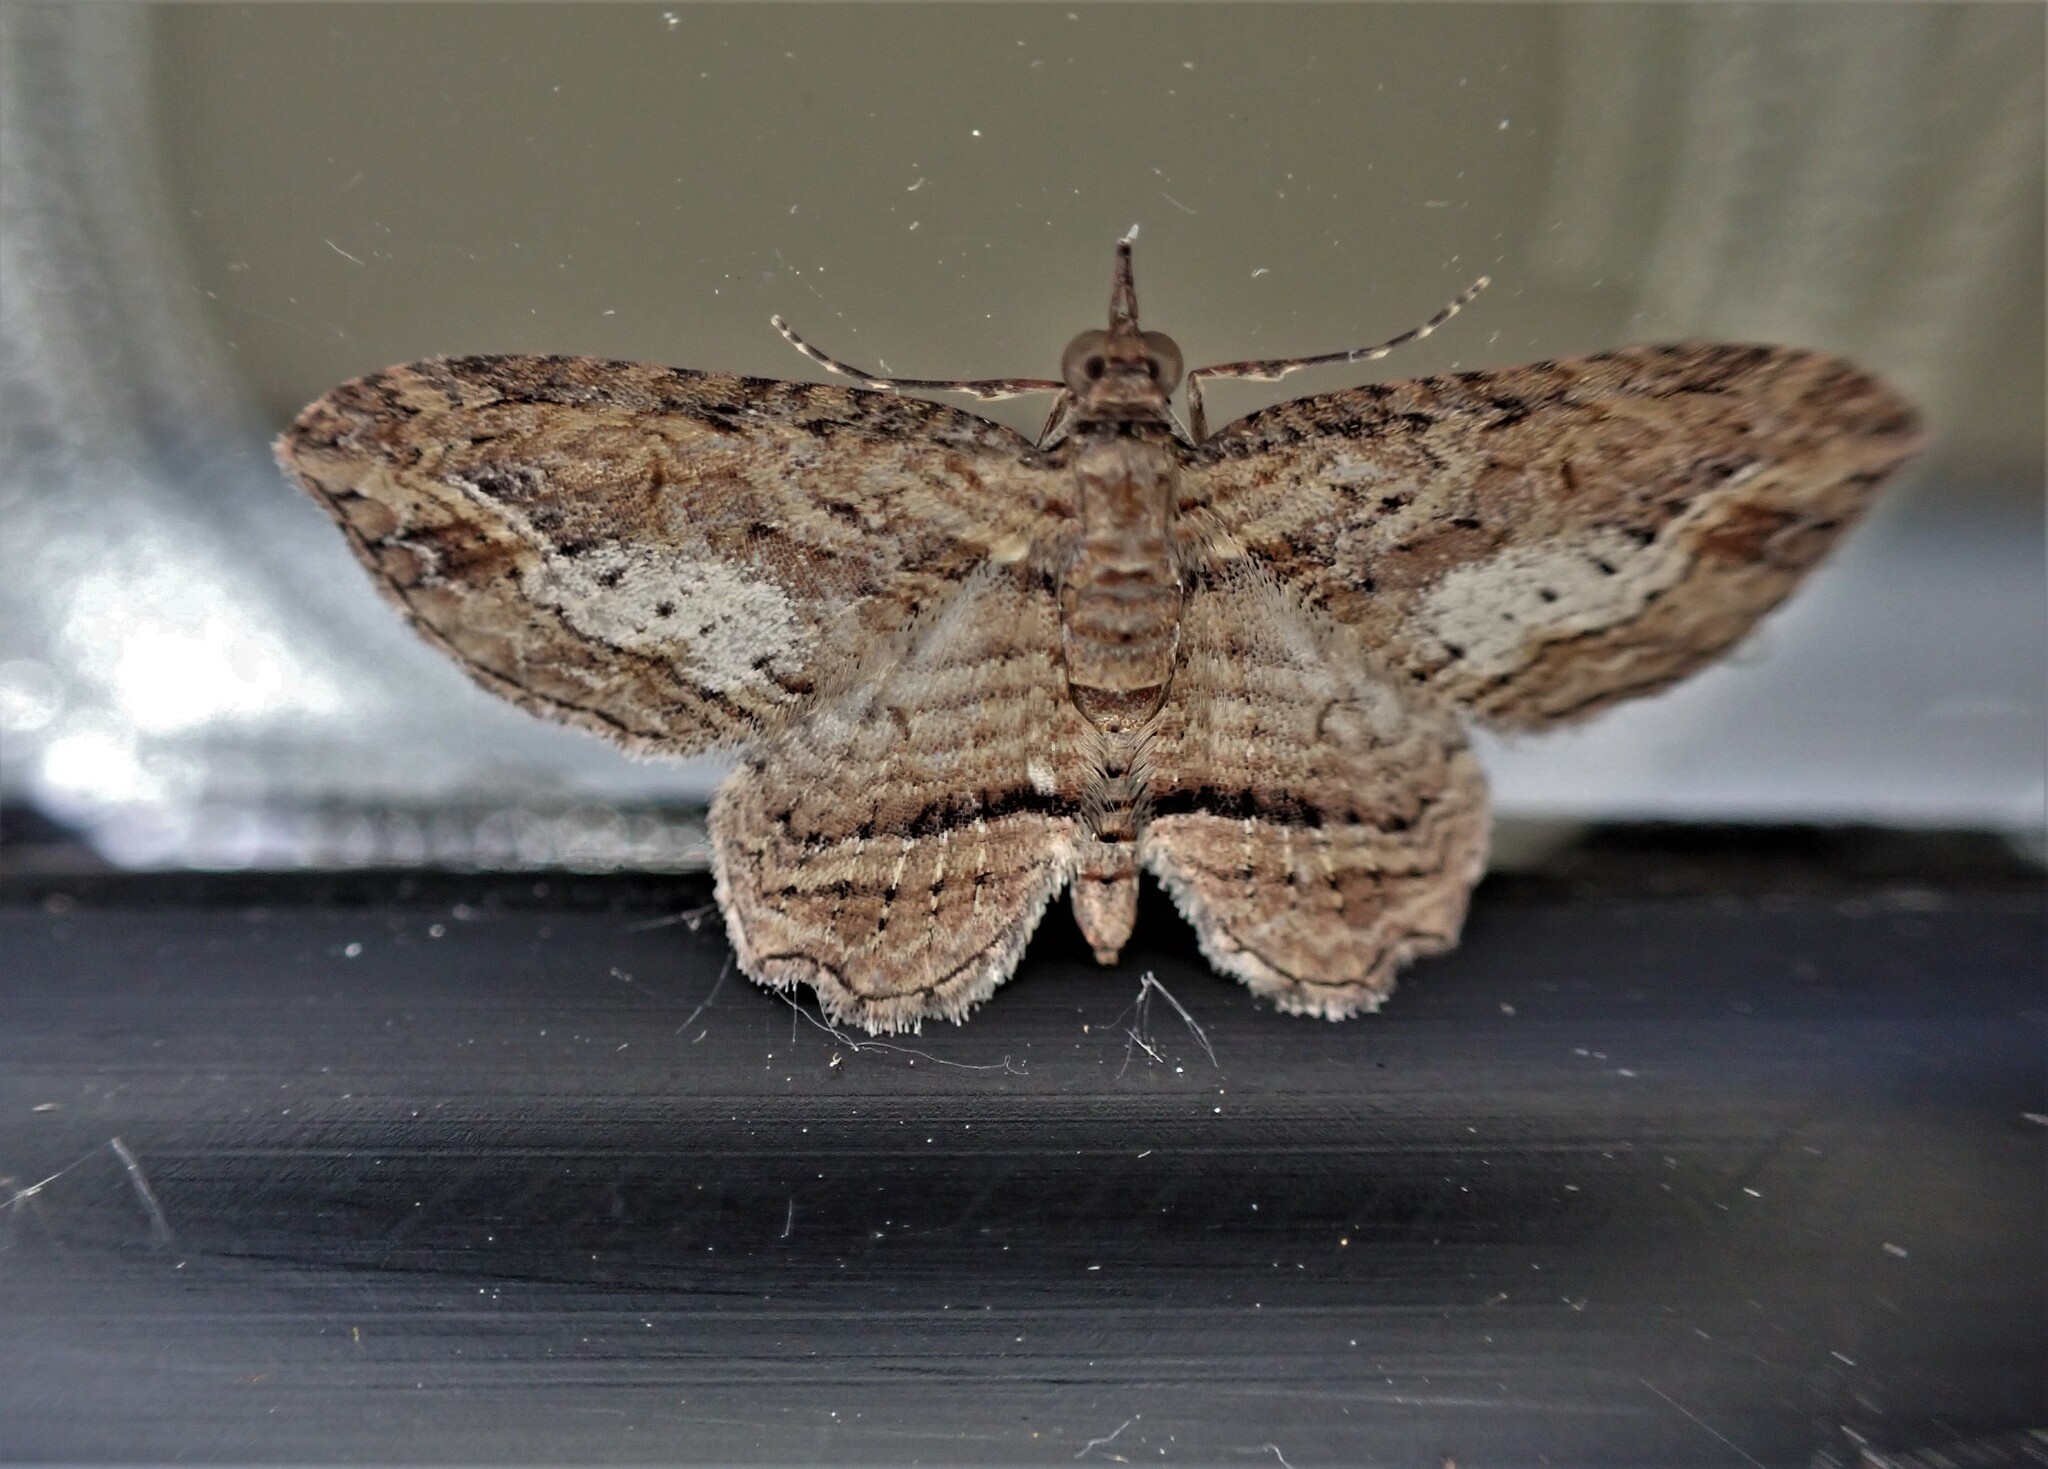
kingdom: Animalia
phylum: Arthropoda
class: Insecta
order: Lepidoptera
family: Geometridae
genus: Chloroclystis
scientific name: Chloroclystis filata
